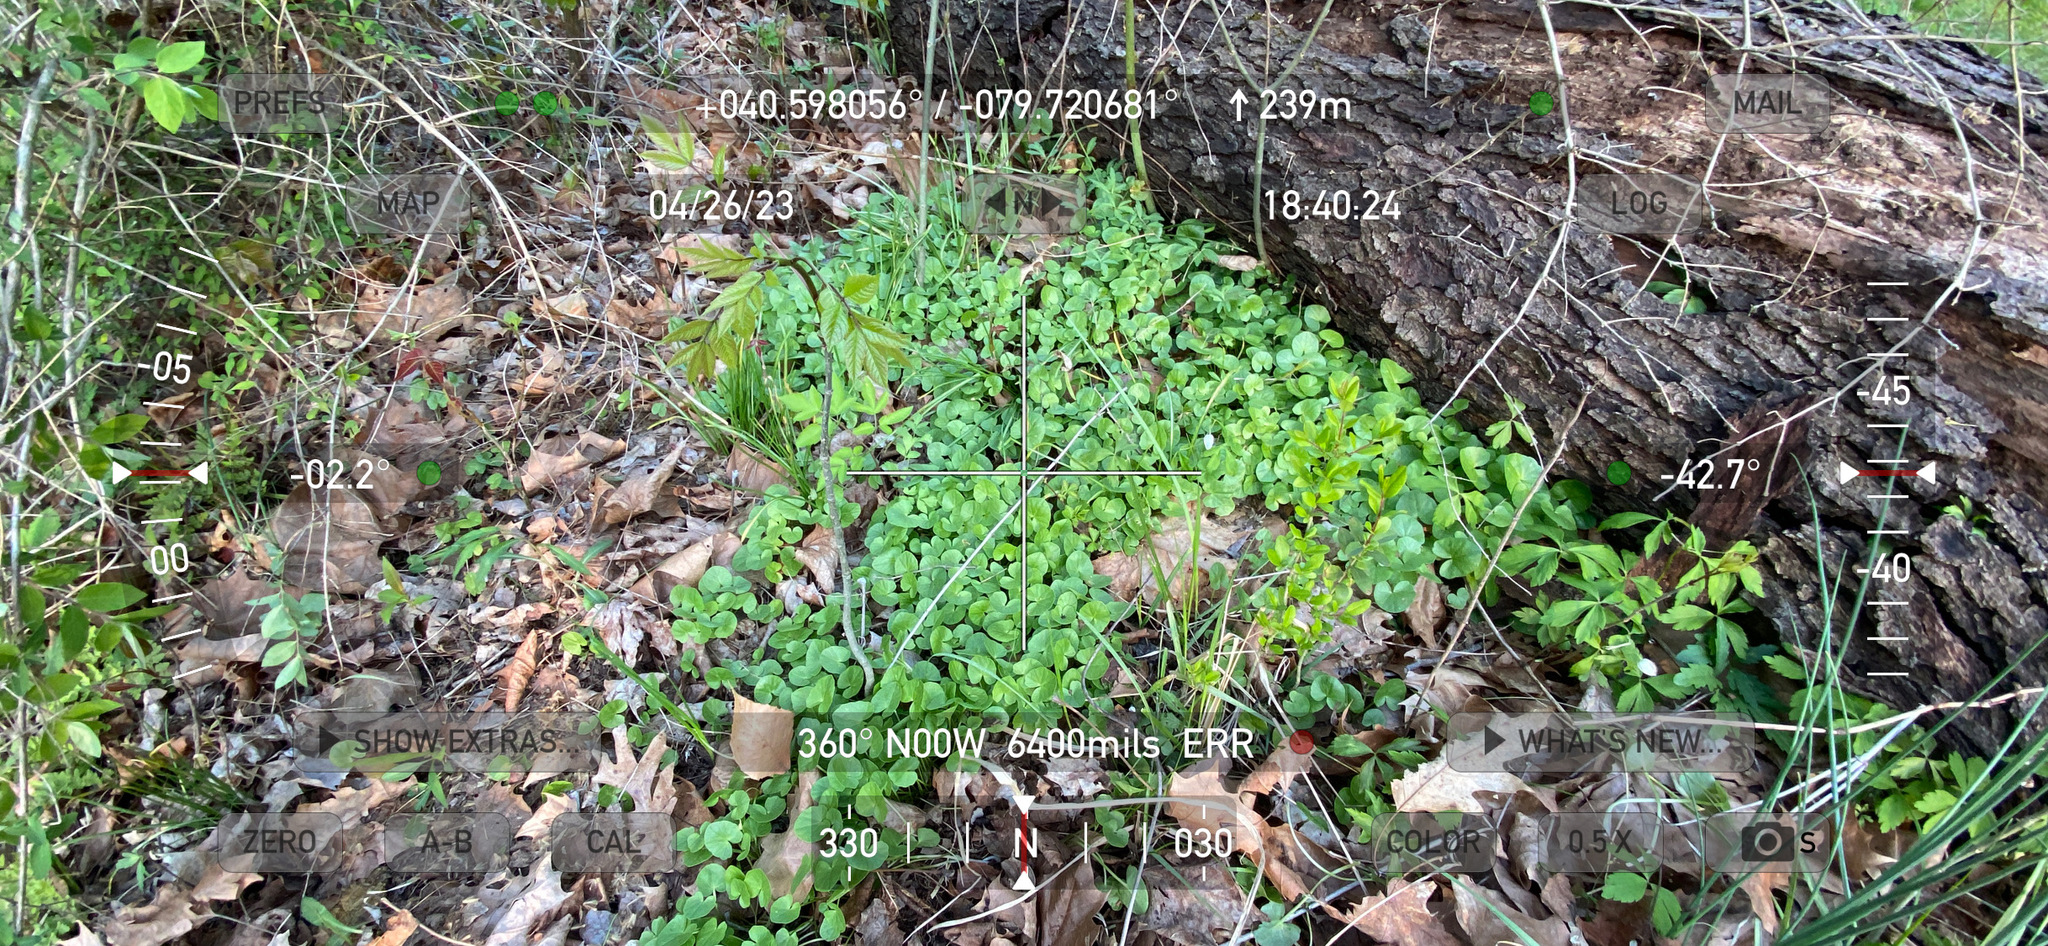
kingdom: Plantae
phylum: Tracheophyta
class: Magnoliopsida
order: Ranunculales
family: Ranunculaceae
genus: Ficaria
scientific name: Ficaria verna
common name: Lesser celandine
